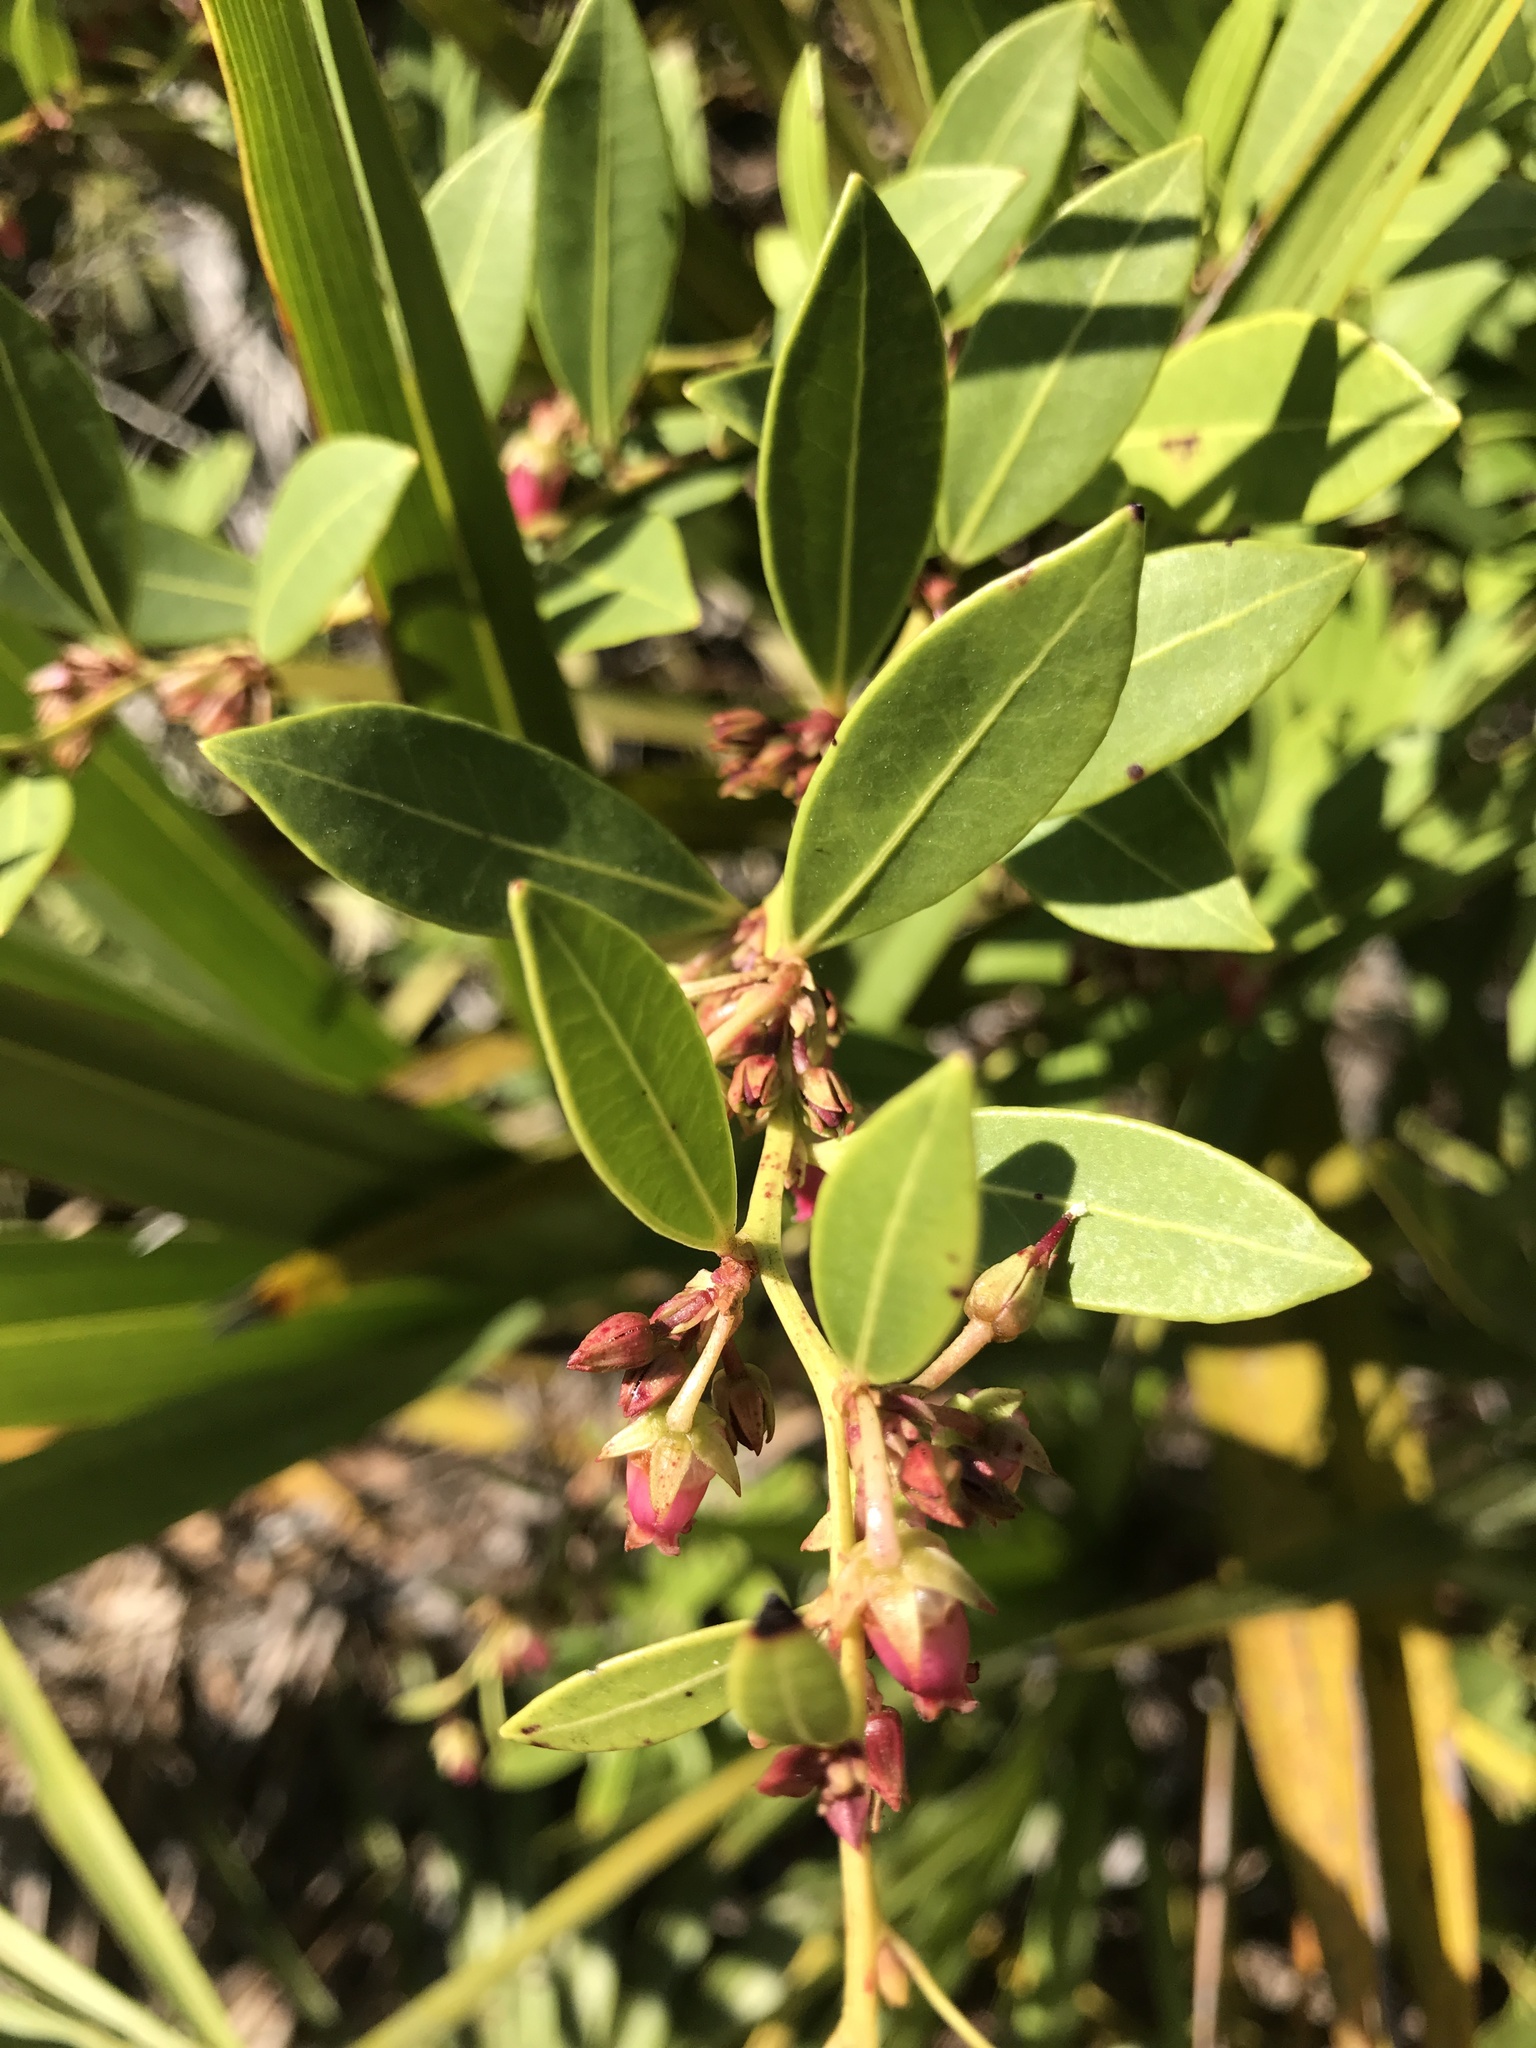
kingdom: Plantae
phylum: Tracheophyta
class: Magnoliopsida
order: Ericales
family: Ericaceae
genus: Lyonia
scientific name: Lyonia lucida
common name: Fetterbush
